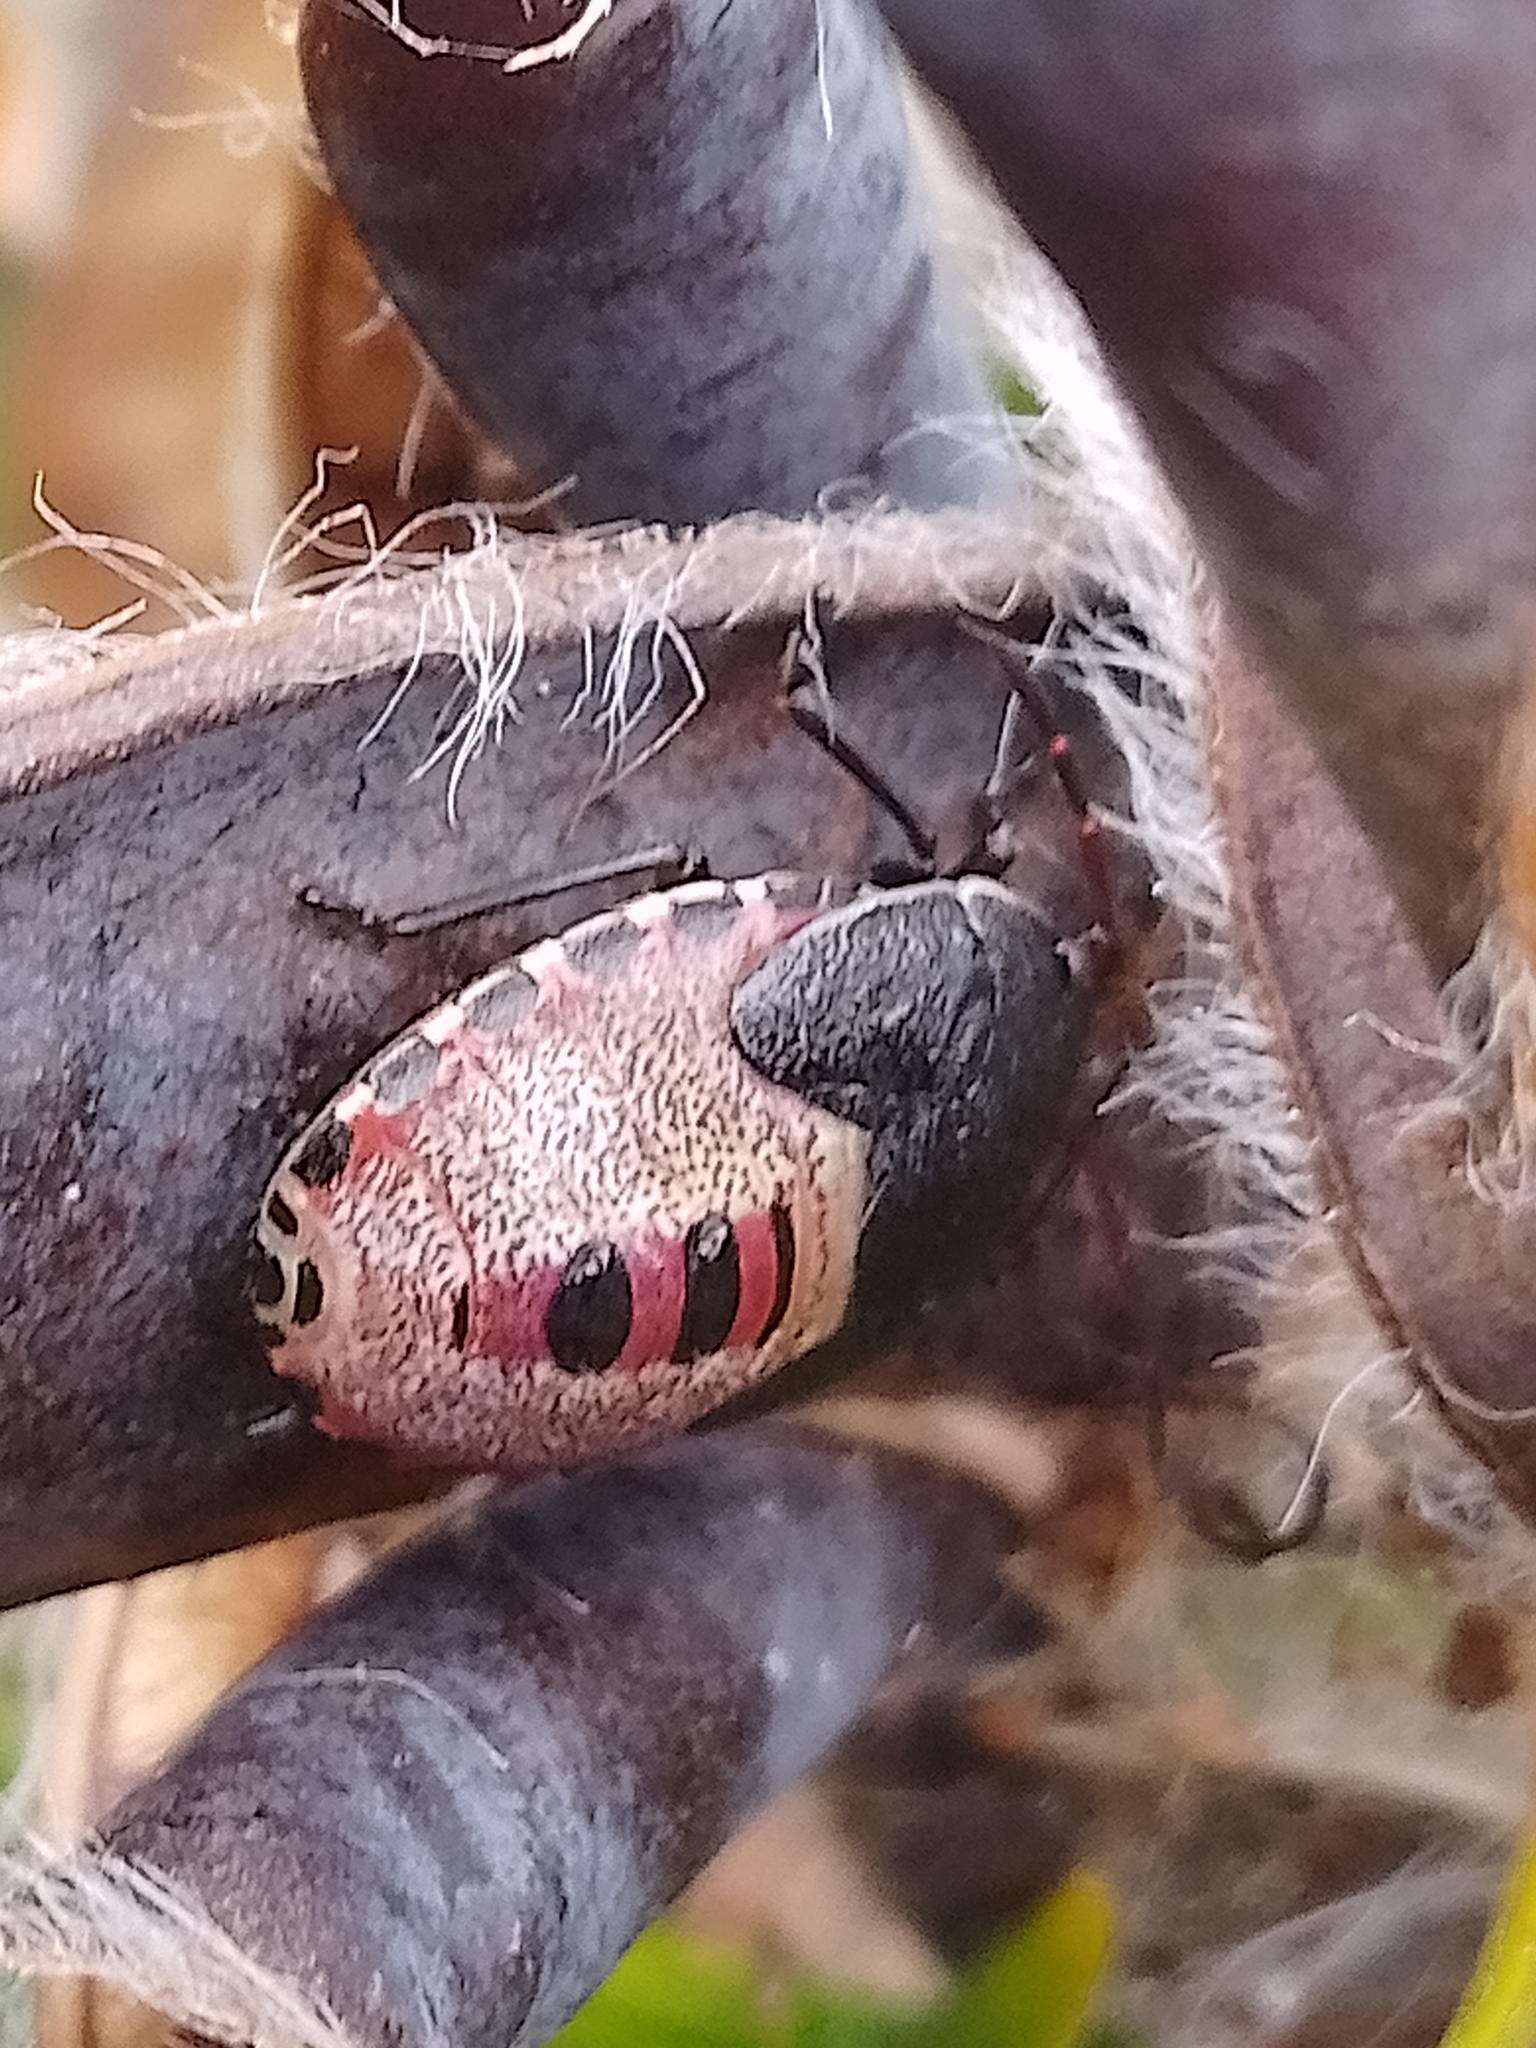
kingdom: Animalia
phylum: Arthropoda
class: Insecta
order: Hemiptera
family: Pentatomidae
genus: Piezodorus
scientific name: Piezodorus lituratus
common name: Stink bug
